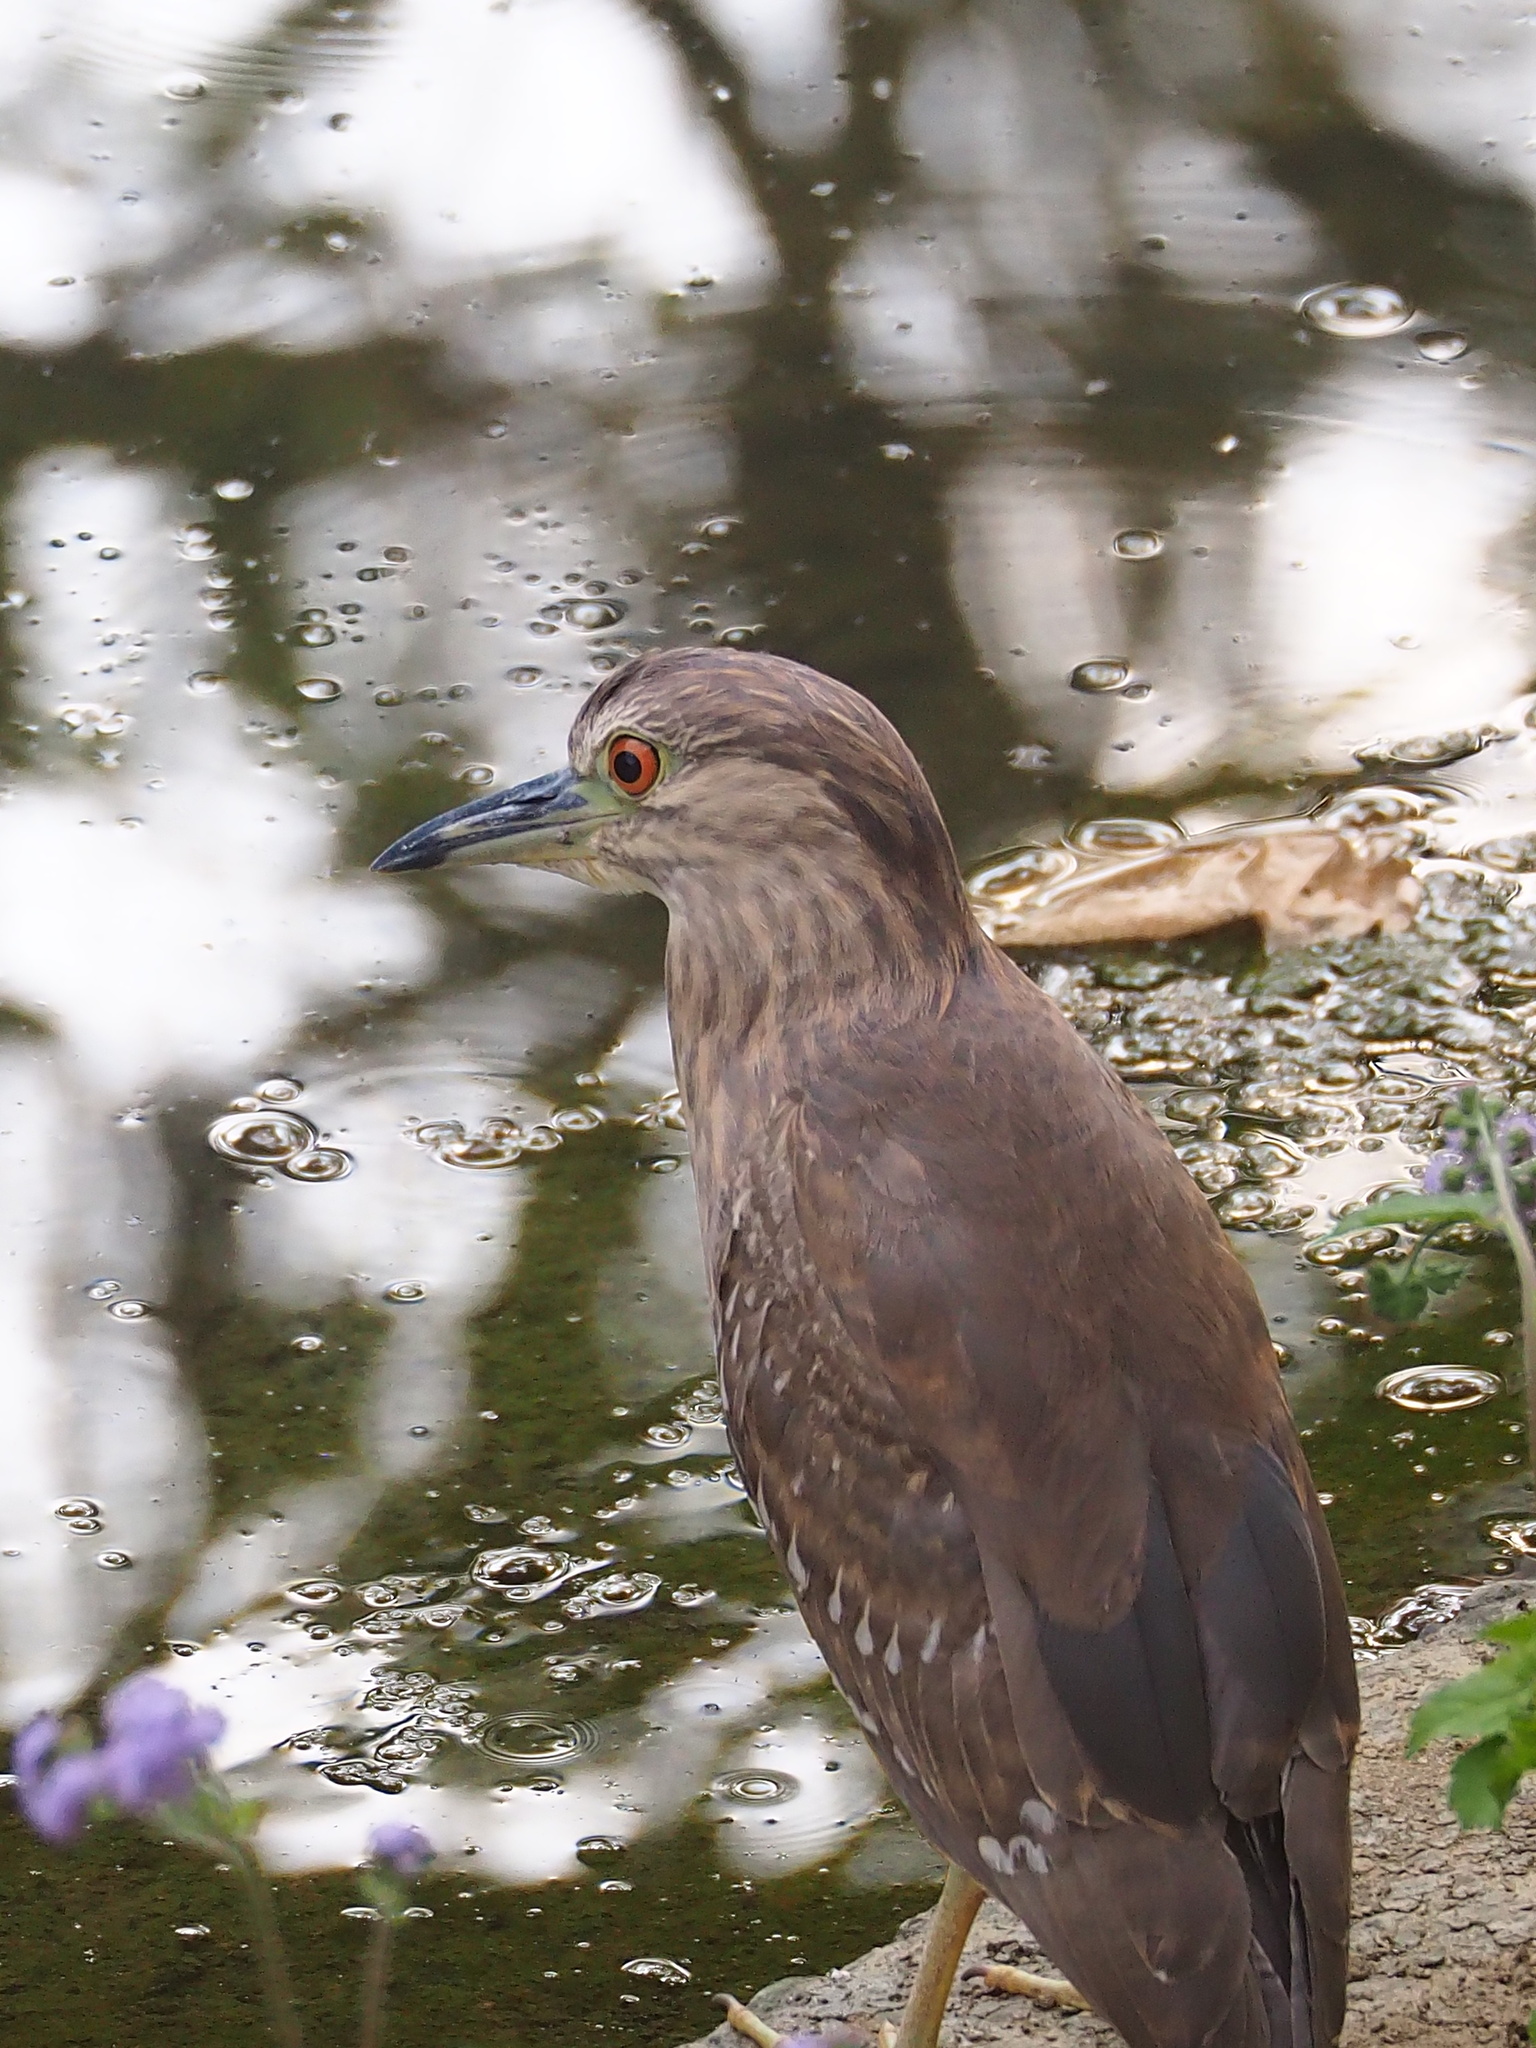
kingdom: Animalia
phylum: Chordata
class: Aves
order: Pelecaniformes
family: Ardeidae
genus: Nycticorax
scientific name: Nycticorax nycticorax
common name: Black-crowned night heron
